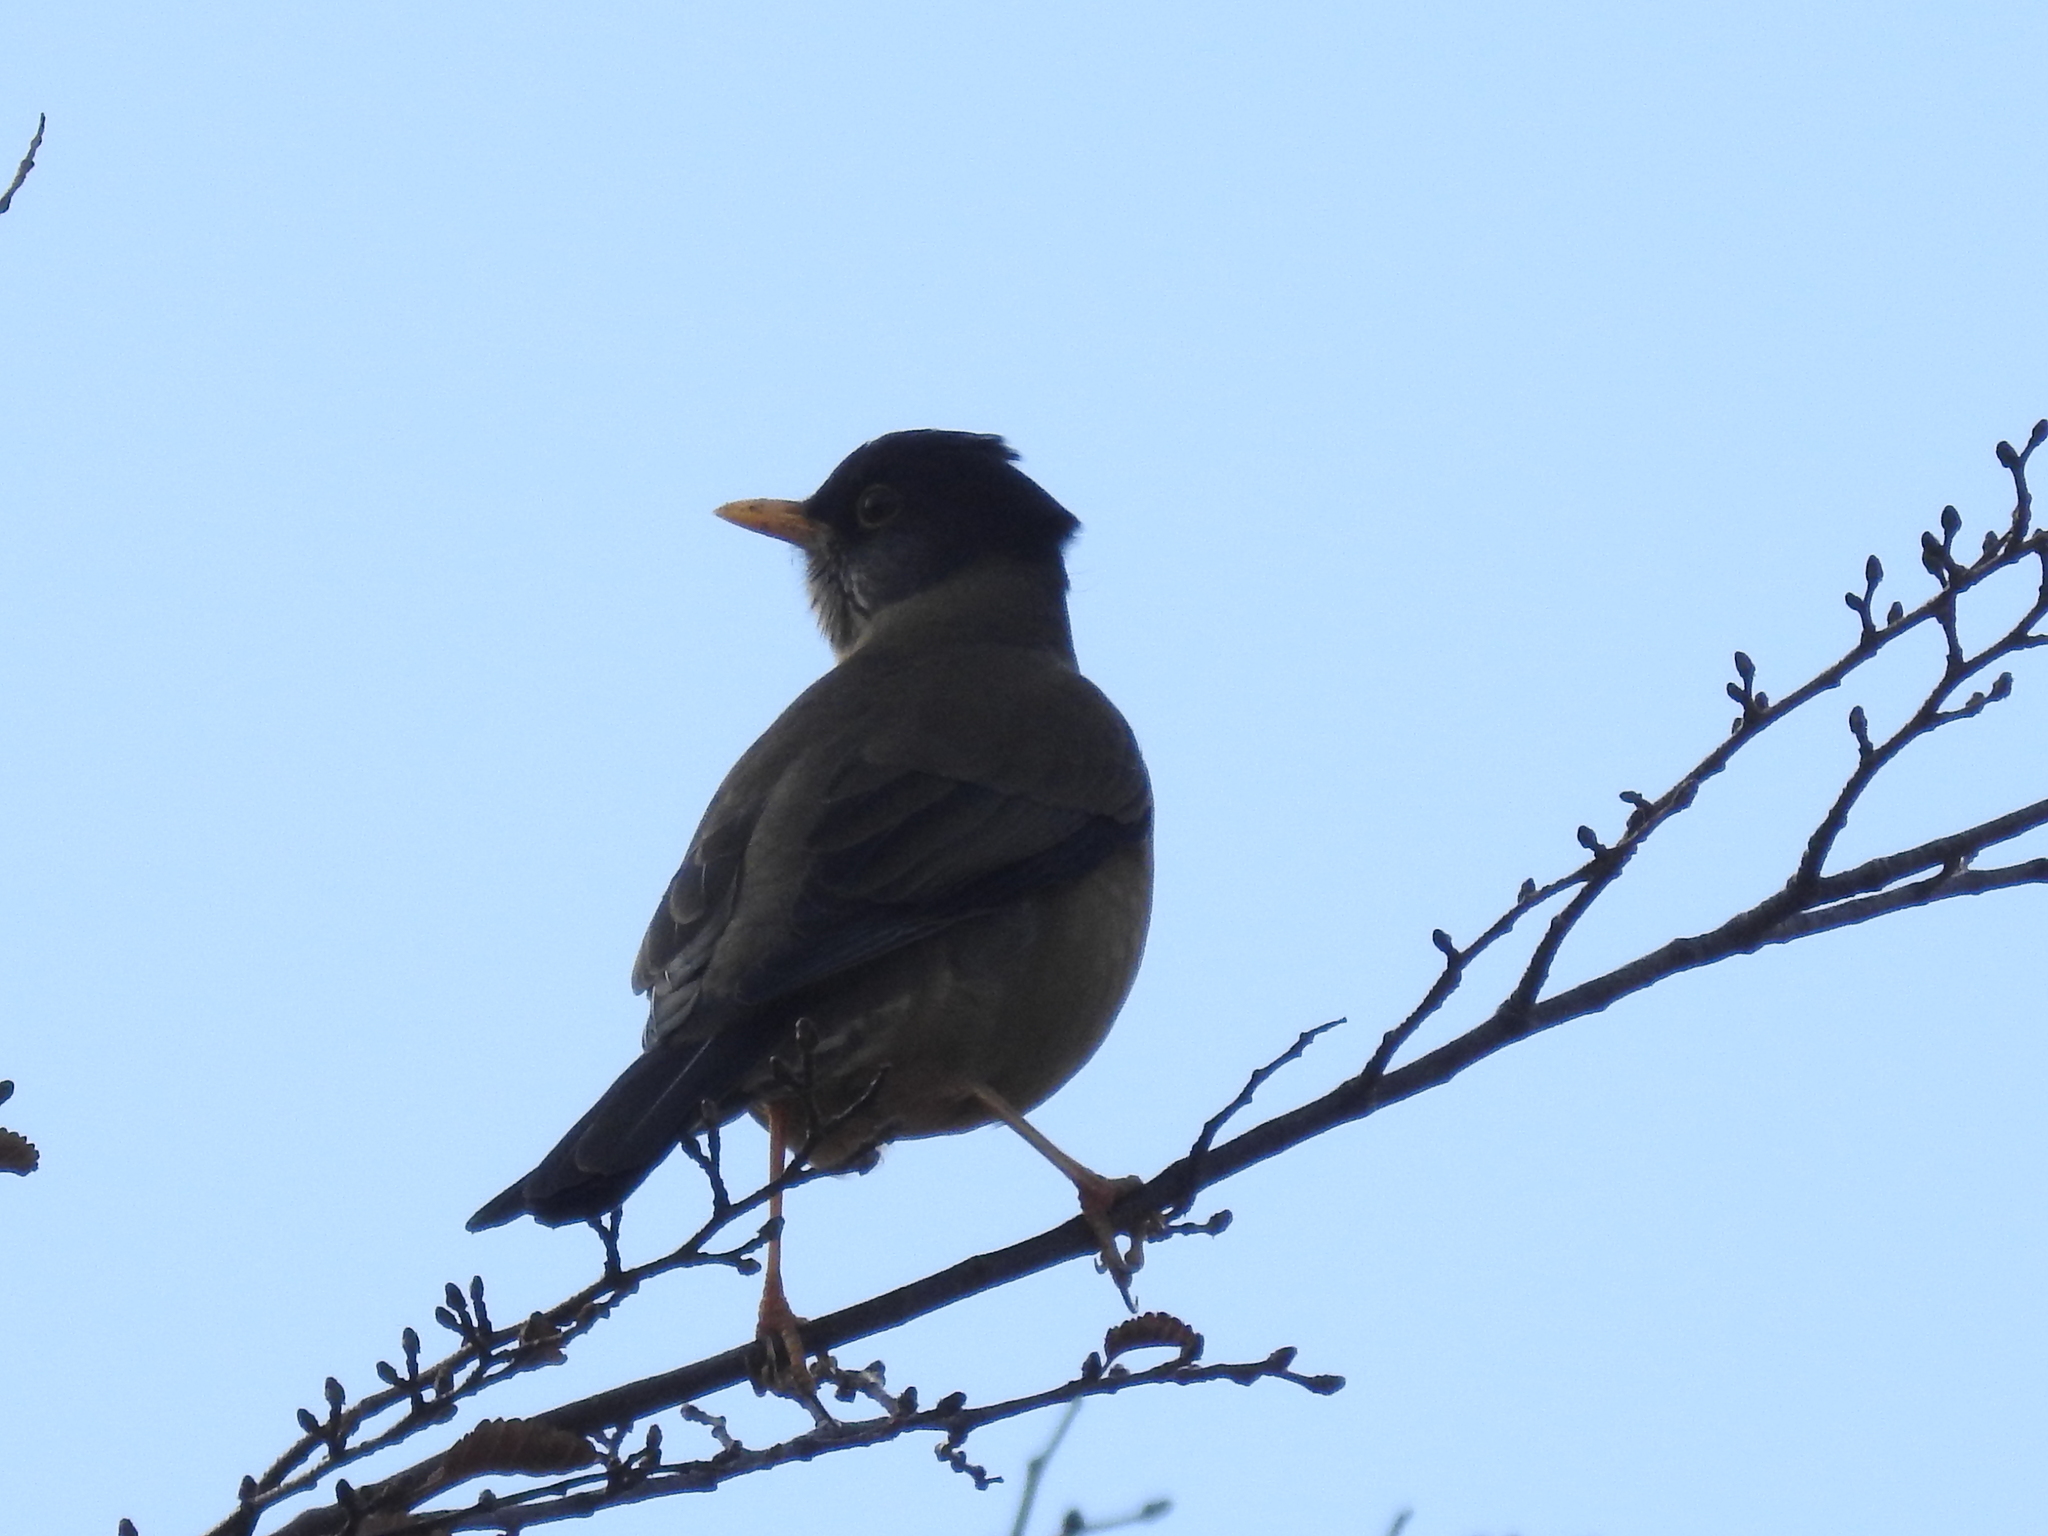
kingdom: Animalia
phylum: Chordata
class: Aves
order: Passeriformes
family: Turdidae
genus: Turdus
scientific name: Turdus falcklandii
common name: Austral thrush
